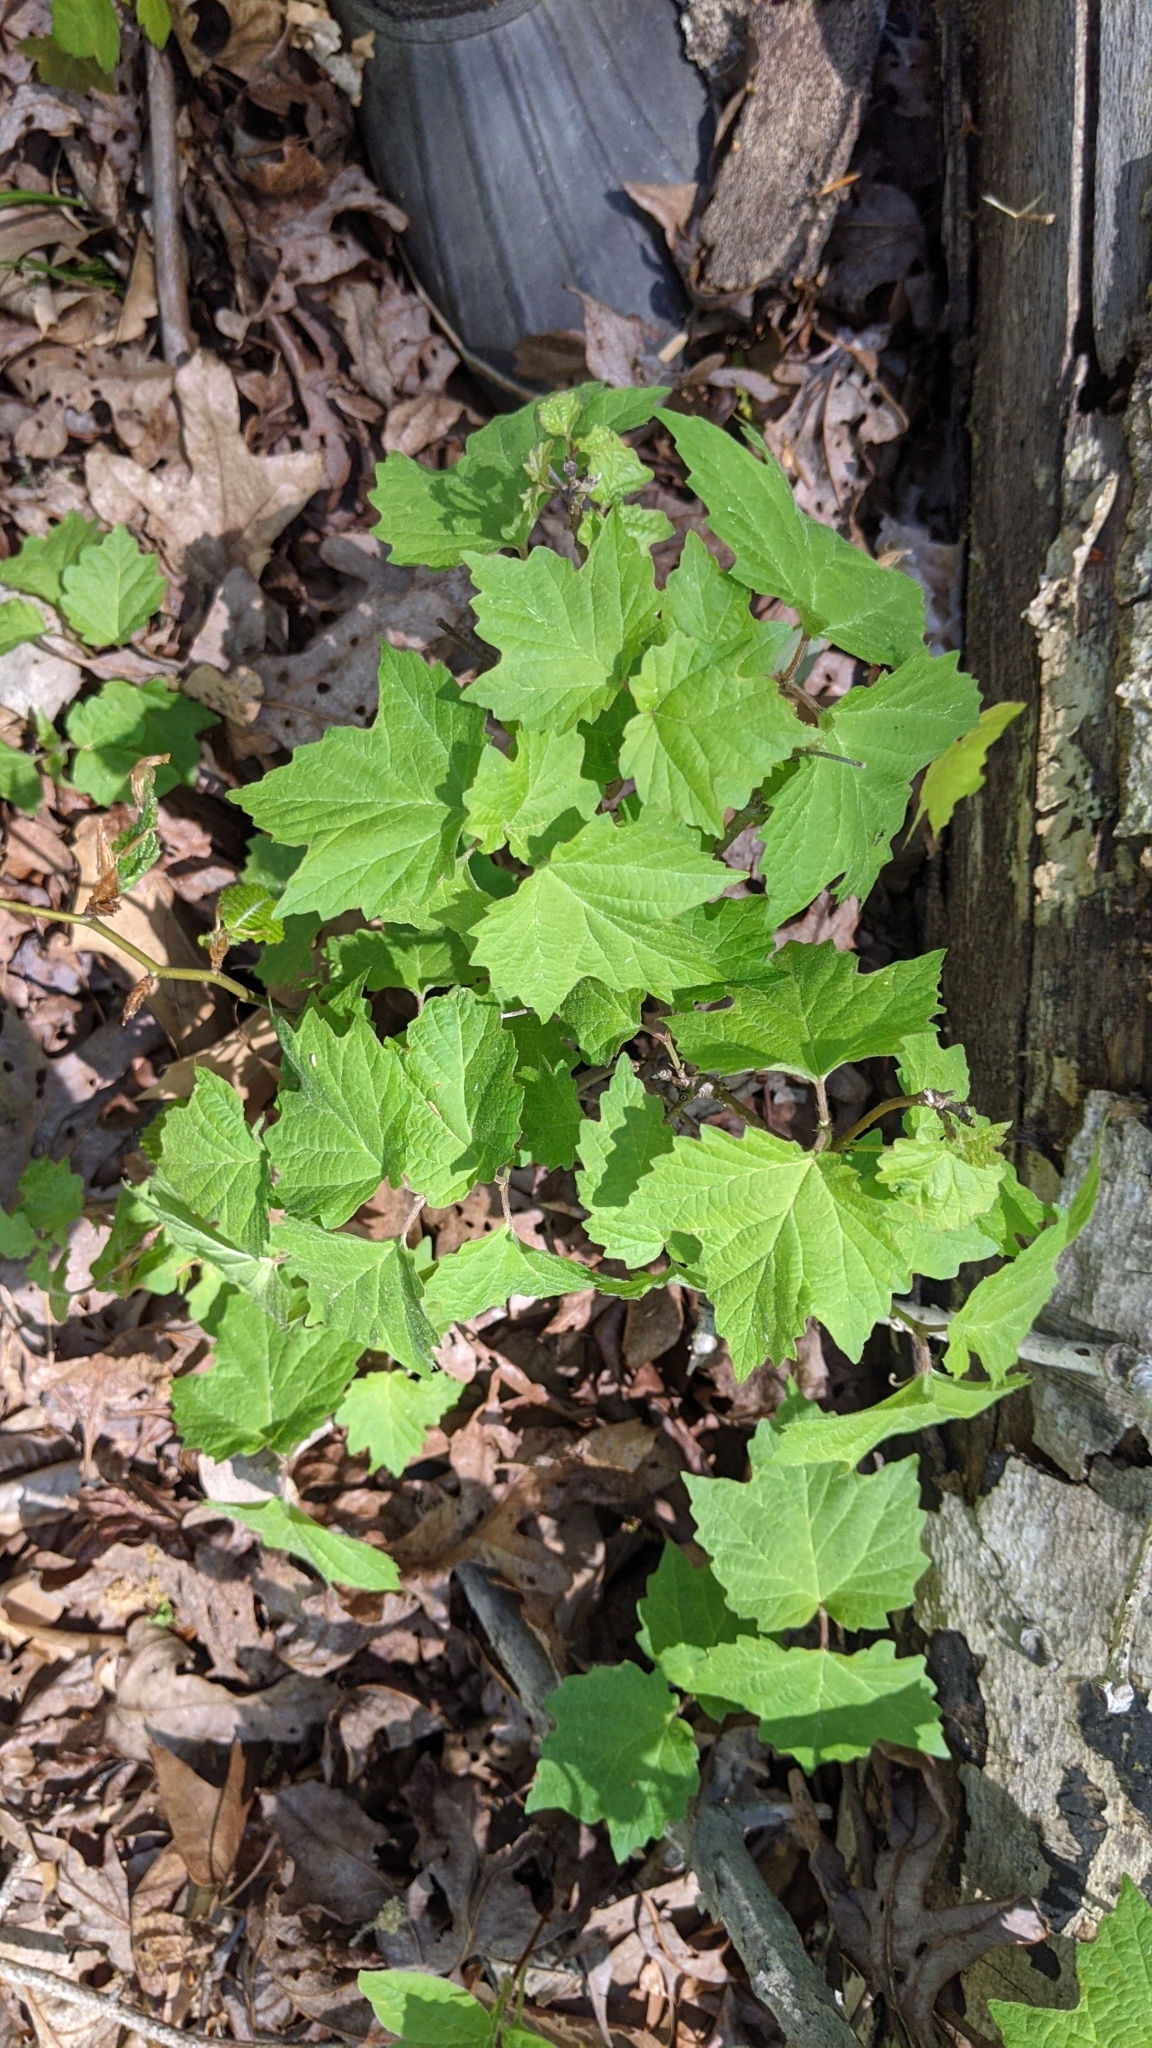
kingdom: Plantae
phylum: Tracheophyta
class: Magnoliopsida
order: Dipsacales
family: Viburnaceae
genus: Viburnum
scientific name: Viburnum acerifolium
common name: Dockmackie
